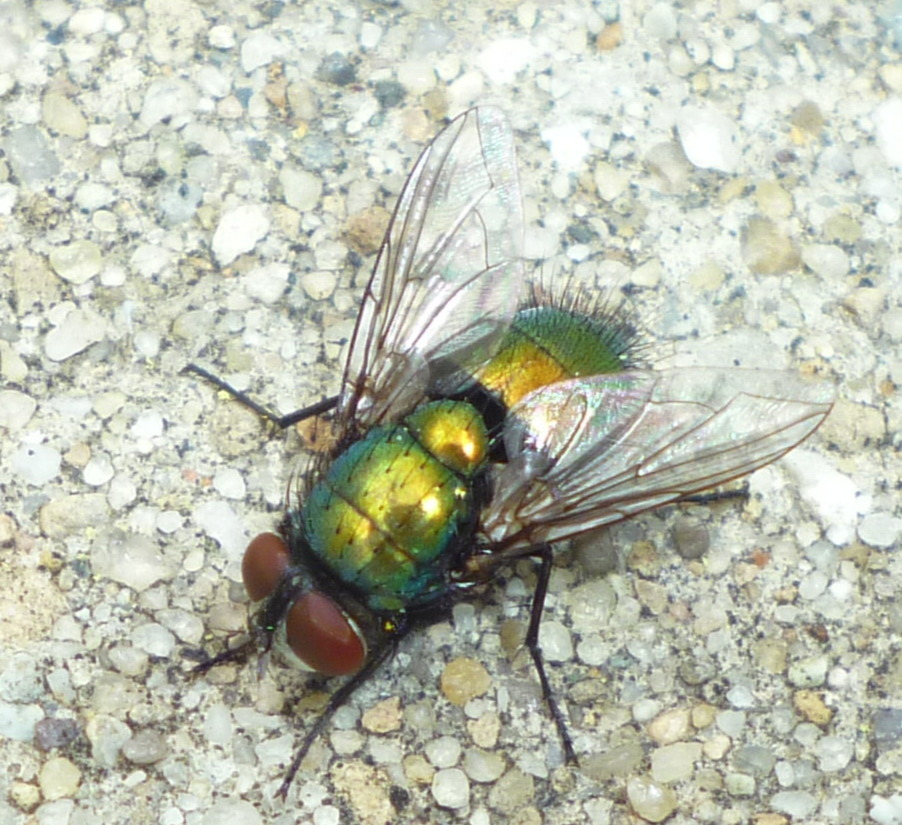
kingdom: Animalia
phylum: Arthropoda
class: Insecta
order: Diptera
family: Calliphoridae
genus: Lucilia
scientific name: Lucilia sericata
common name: Blow fly
